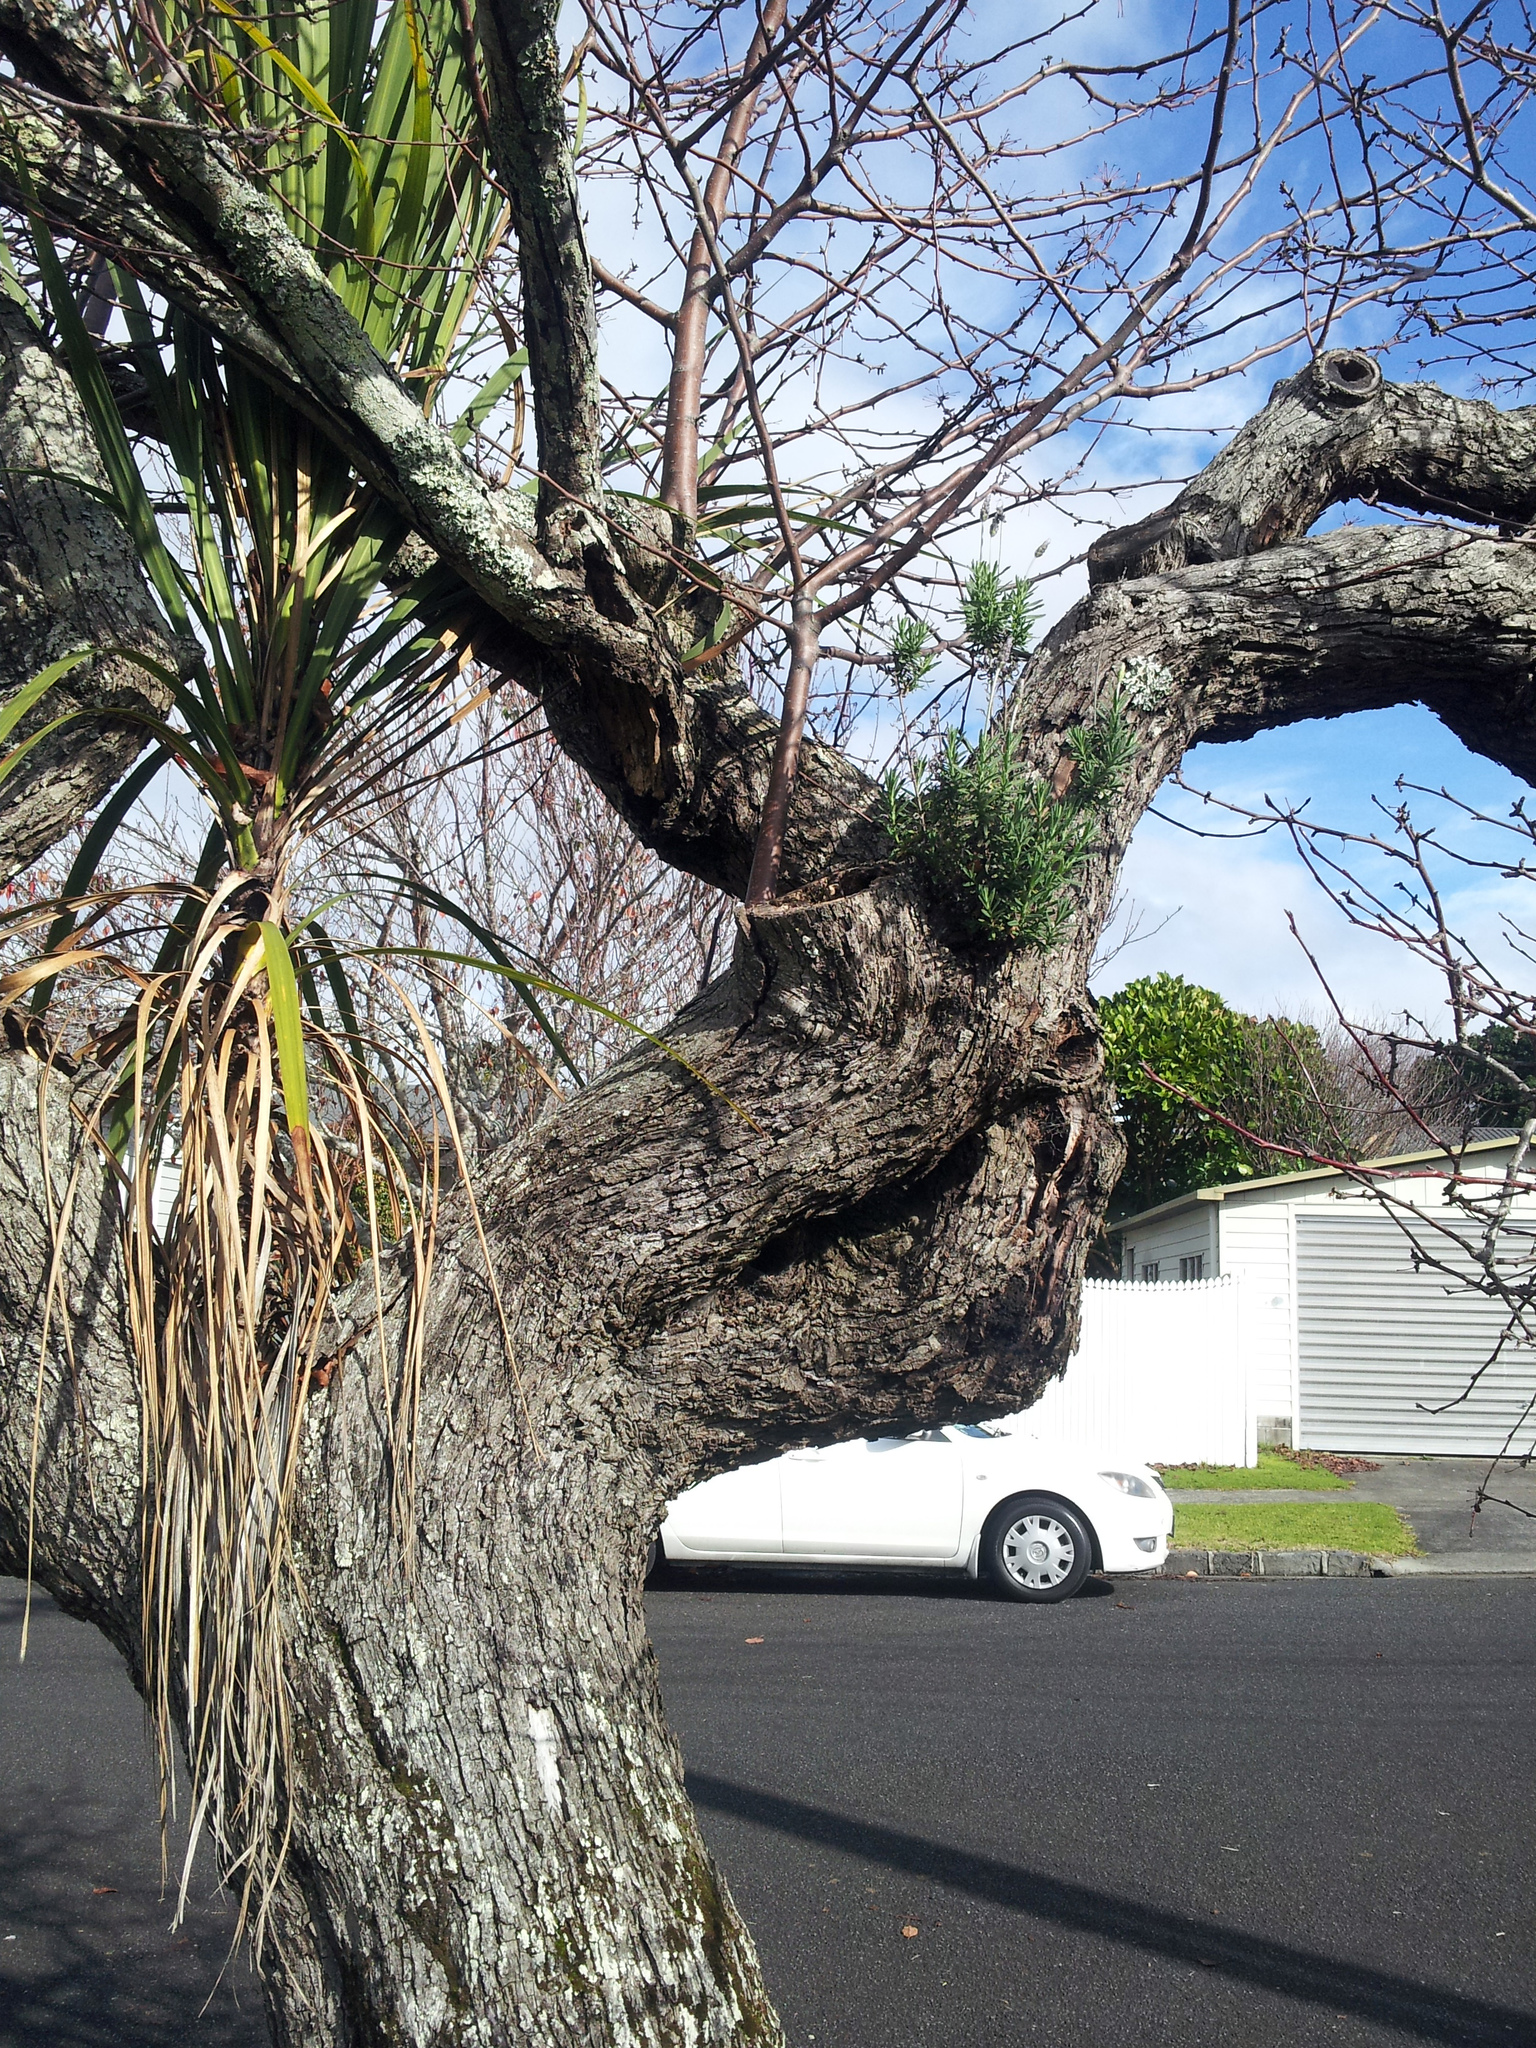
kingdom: Plantae
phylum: Tracheophyta
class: Liliopsida
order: Asparagales
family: Asparagaceae
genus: Cordyline
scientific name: Cordyline australis
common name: Cabbage-palm
